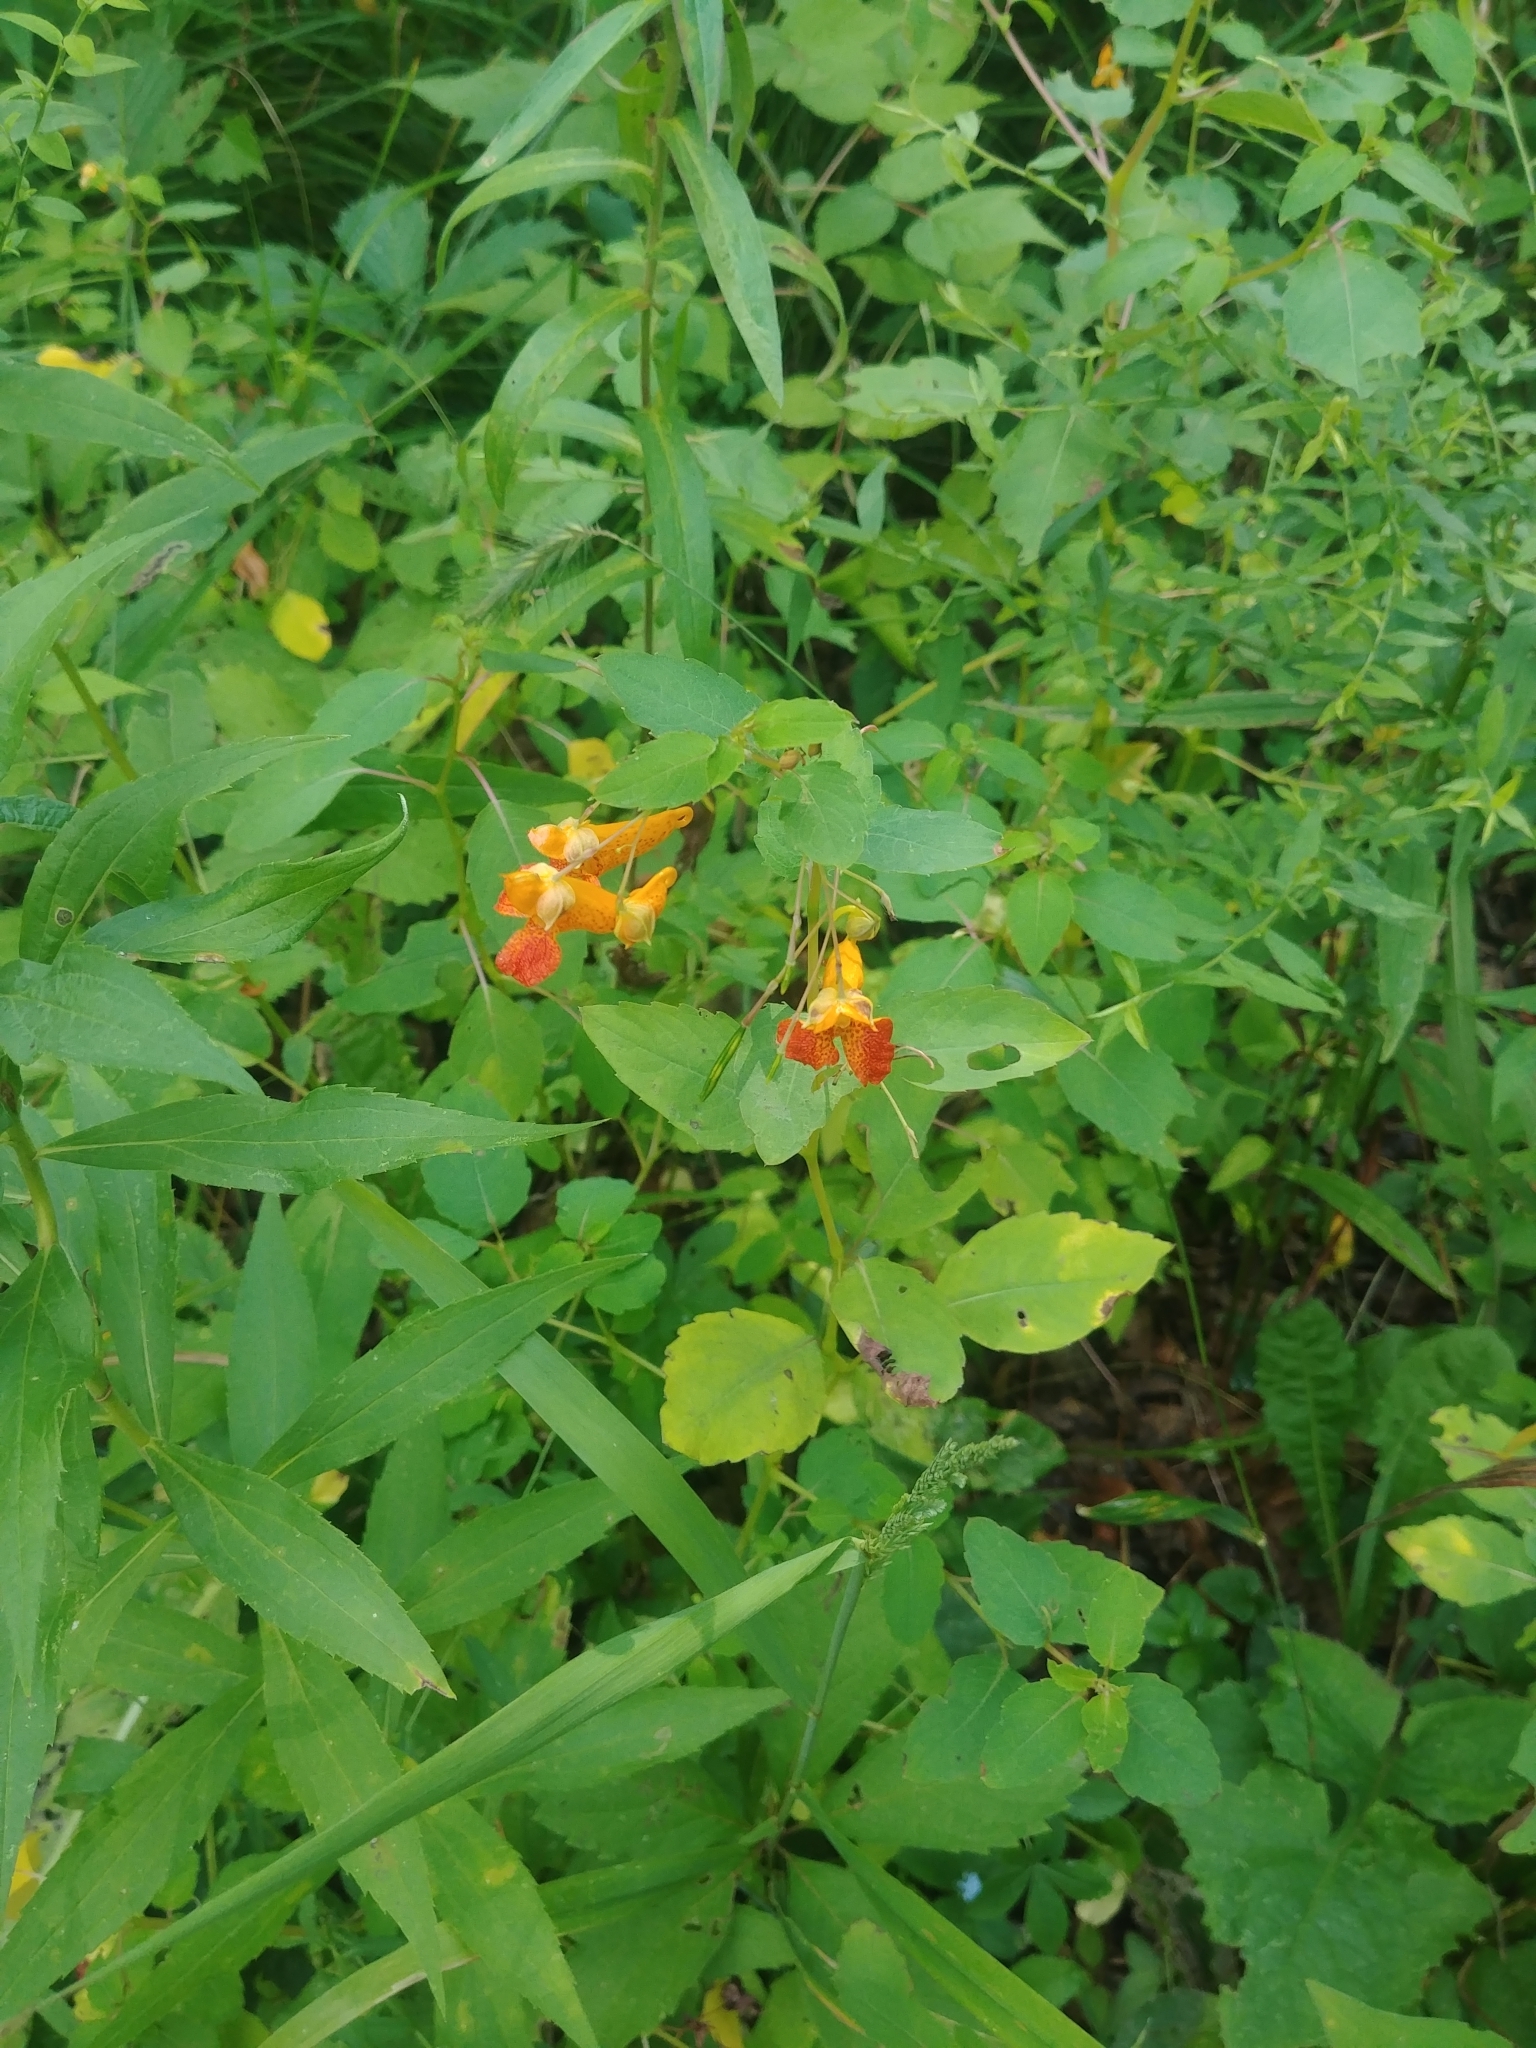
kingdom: Plantae
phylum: Tracheophyta
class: Magnoliopsida
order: Ericales
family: Balsaminaceae
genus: Impatiens
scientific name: Impatiens capensis
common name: Orange balsam
